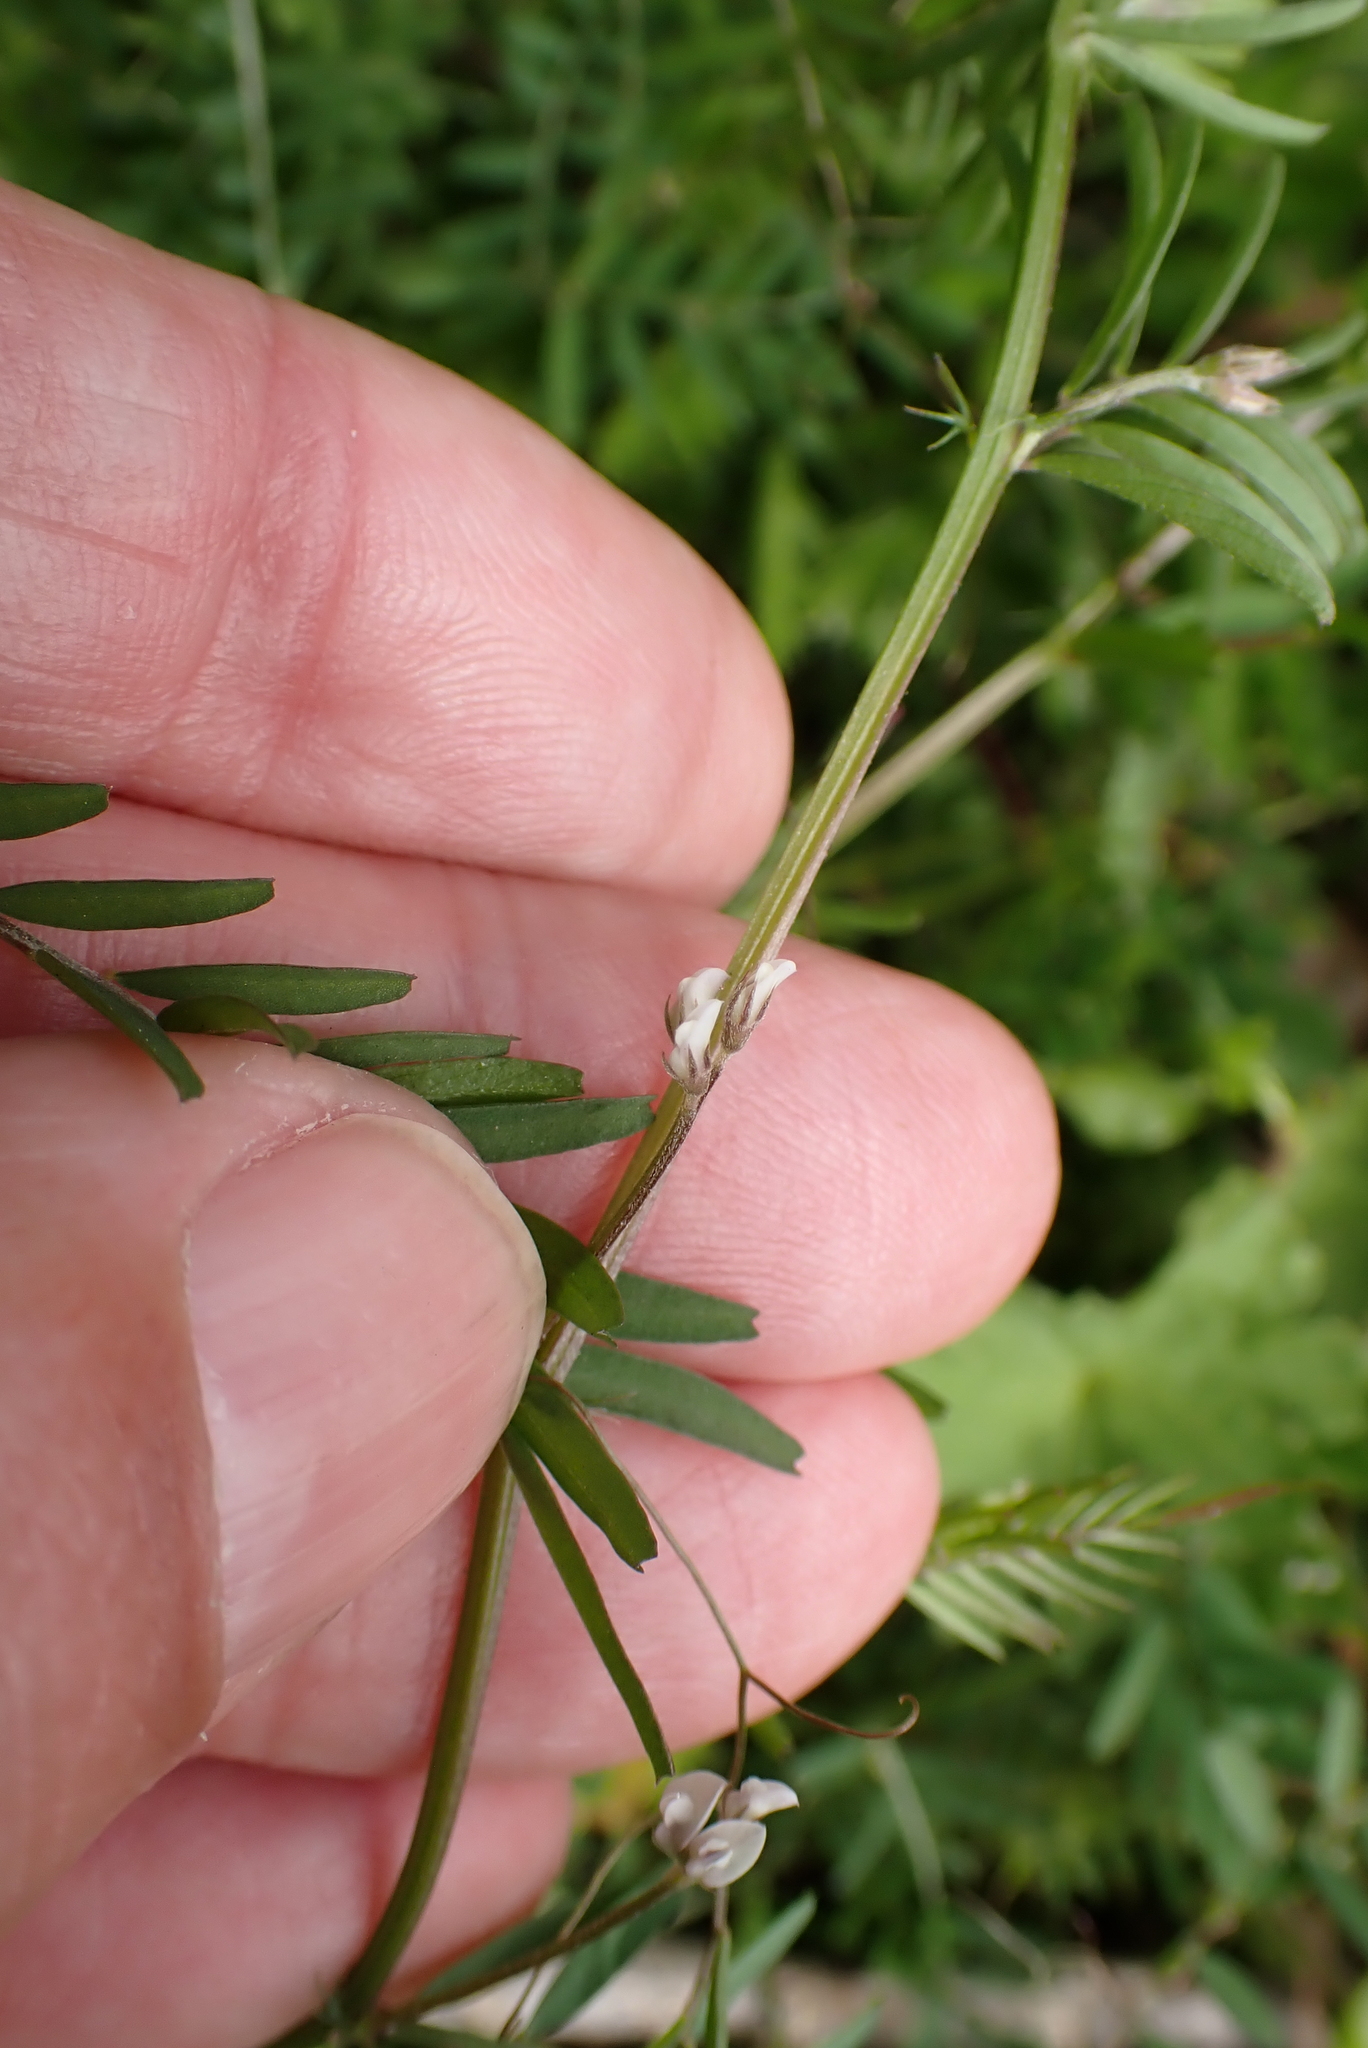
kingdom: Plantae
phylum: Tracheophyta
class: Magnoliopsida
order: Fabales
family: Fabaceae
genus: Vicia
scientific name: Vicia hirsuta
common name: Tiny vetch
